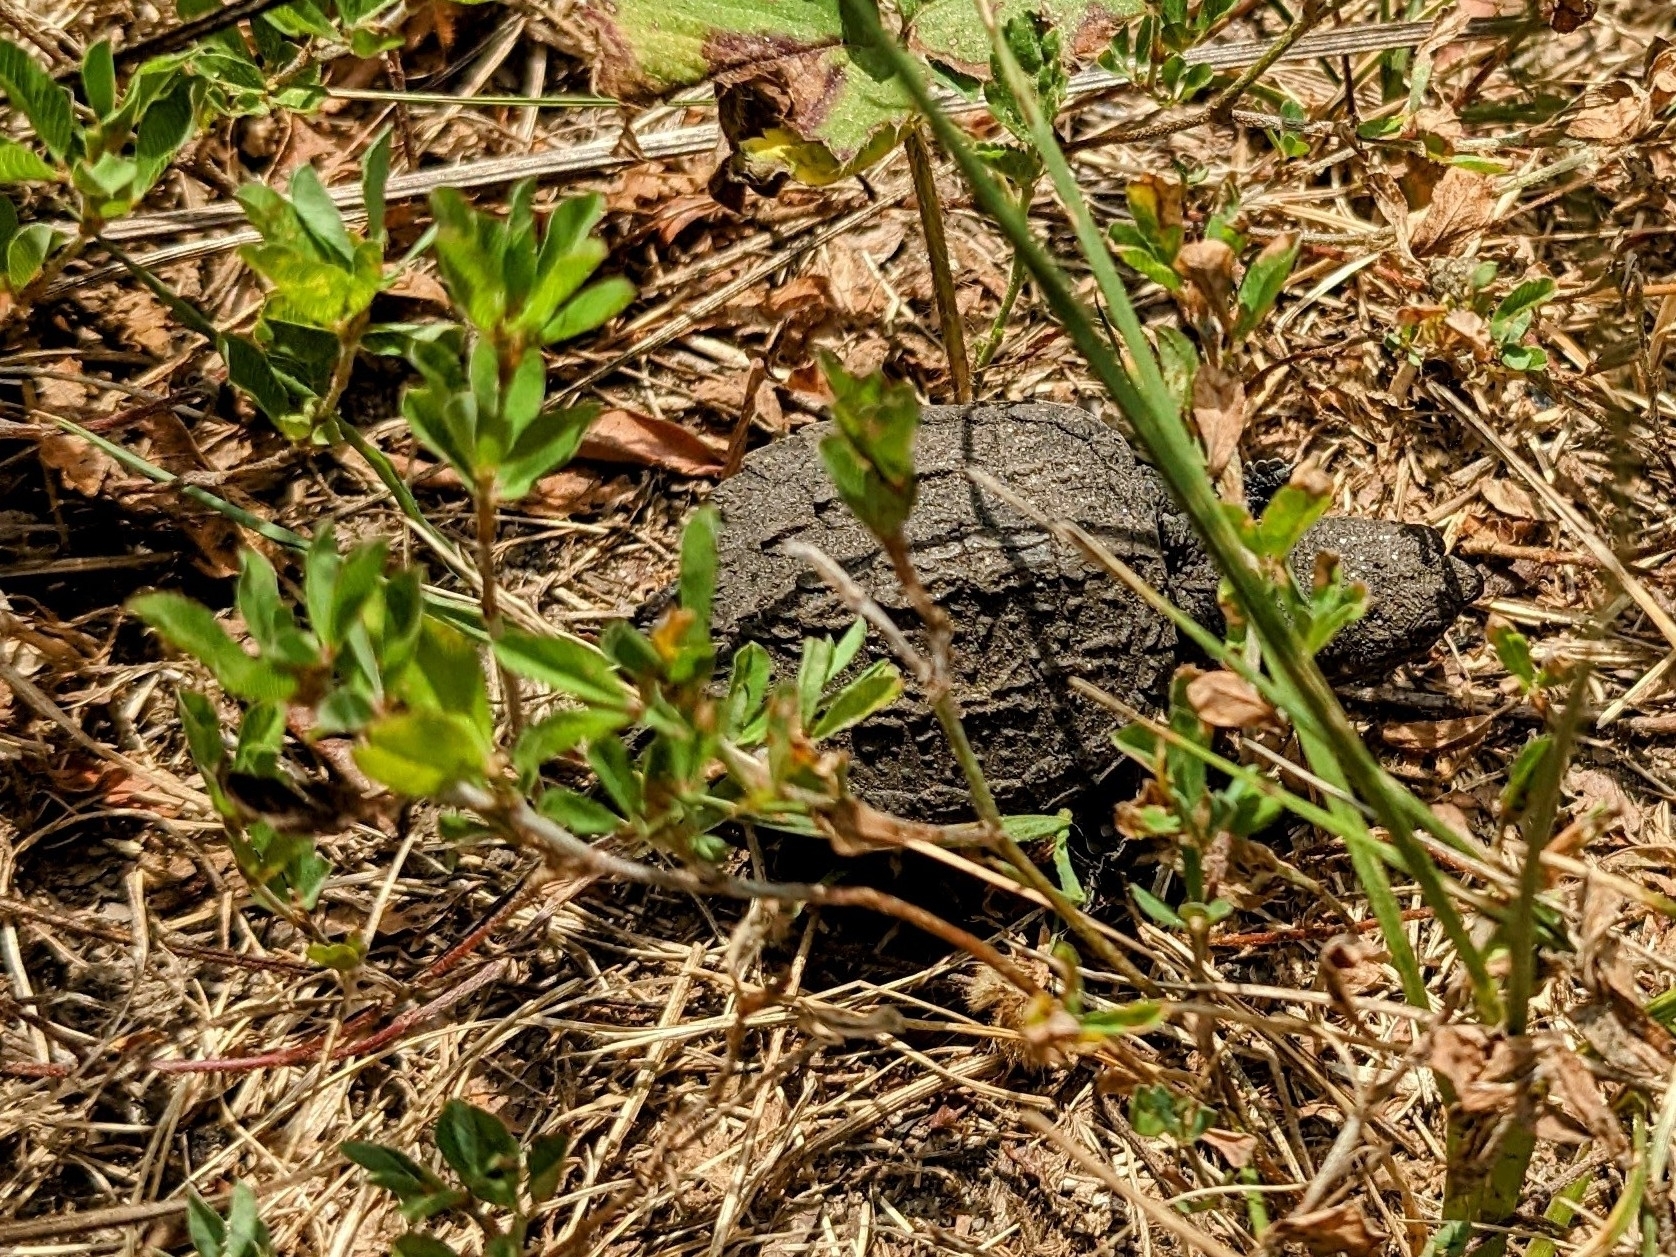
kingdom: Animalia
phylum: Chordata
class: Testudines
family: Chelydridae
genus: Chelydra
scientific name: Chelydra serpentina
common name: Common snapping turtle
